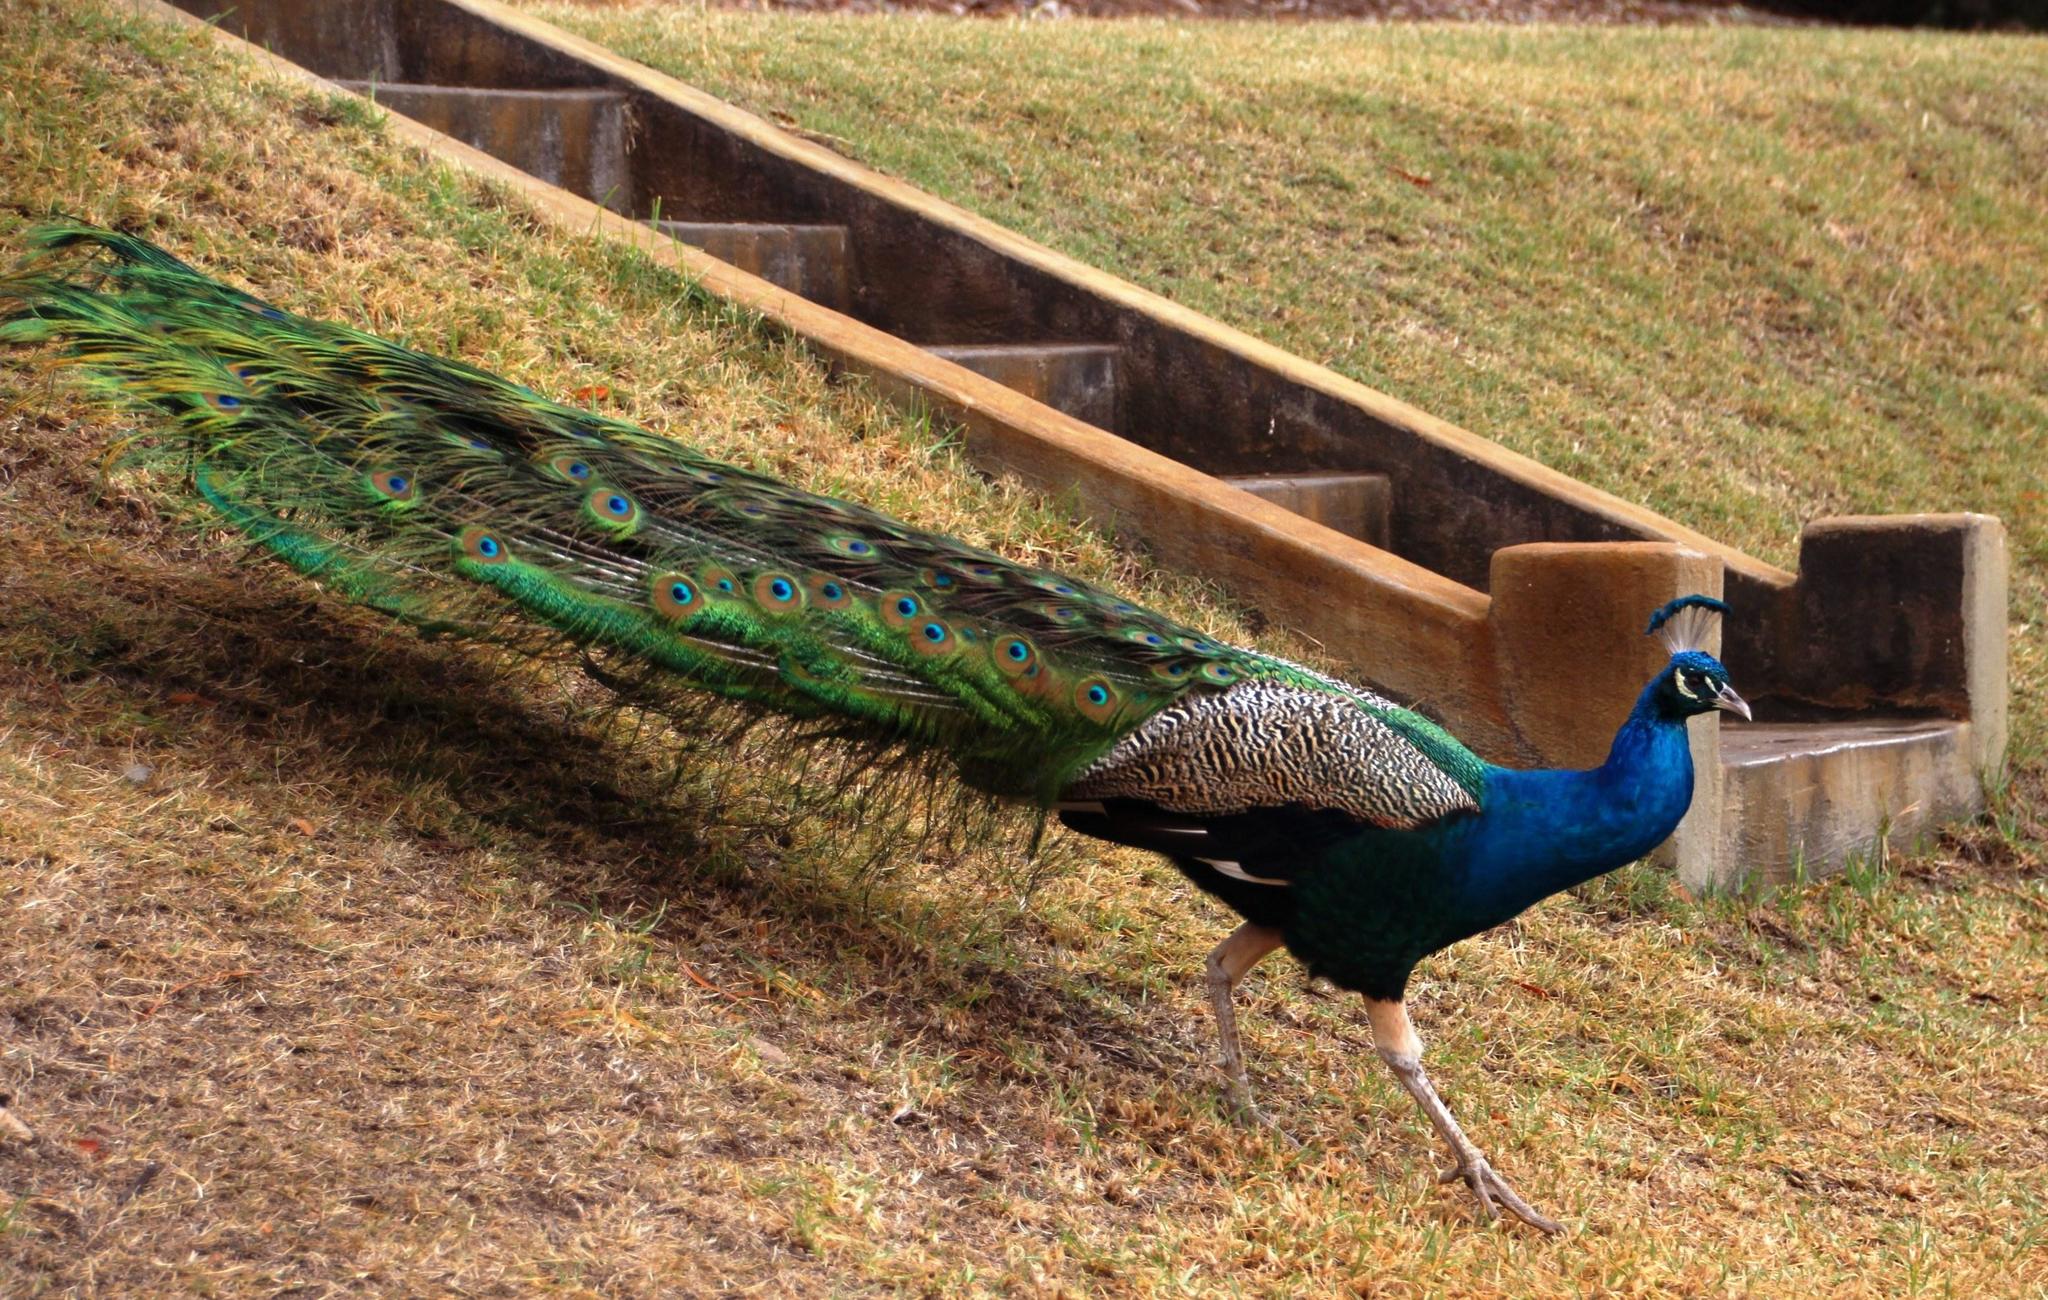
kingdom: Animalia
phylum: Chordata
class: Aves
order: Galliformes
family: Phasianidae
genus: Pavo
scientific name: Pavo cristatus
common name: Indian peafowl
